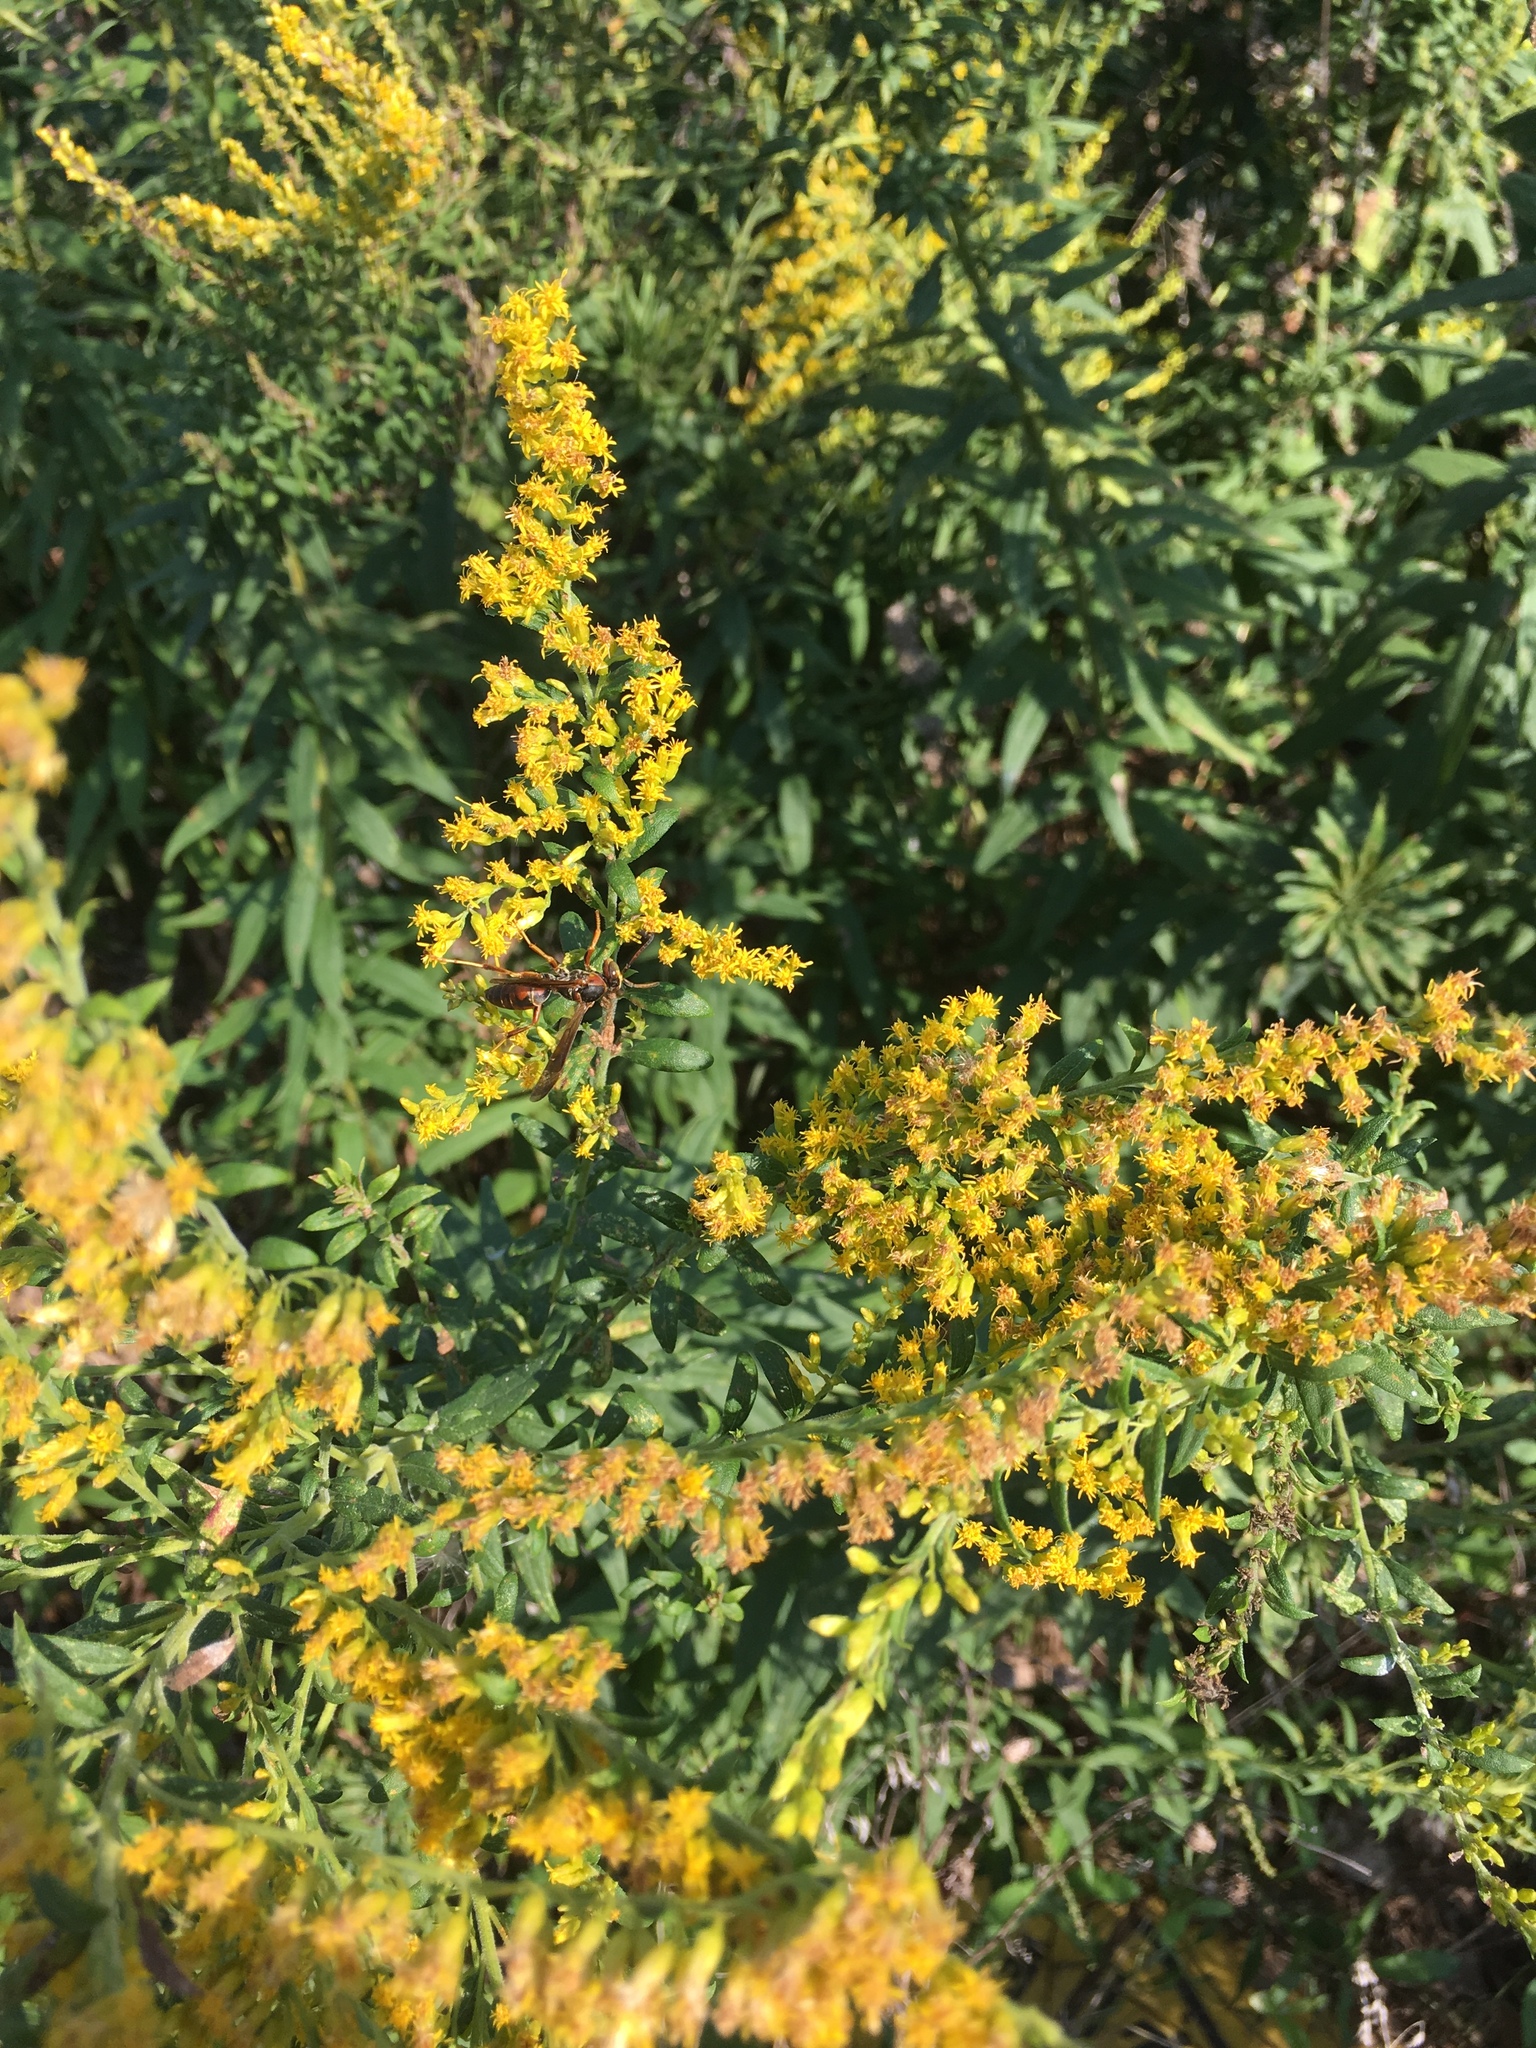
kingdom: Animalia
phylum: Arthropoda
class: Insecta
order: Hymenoptera
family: Eumenidae
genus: Polistes
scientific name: Polistes fuscatus
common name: Dark paper wasp
